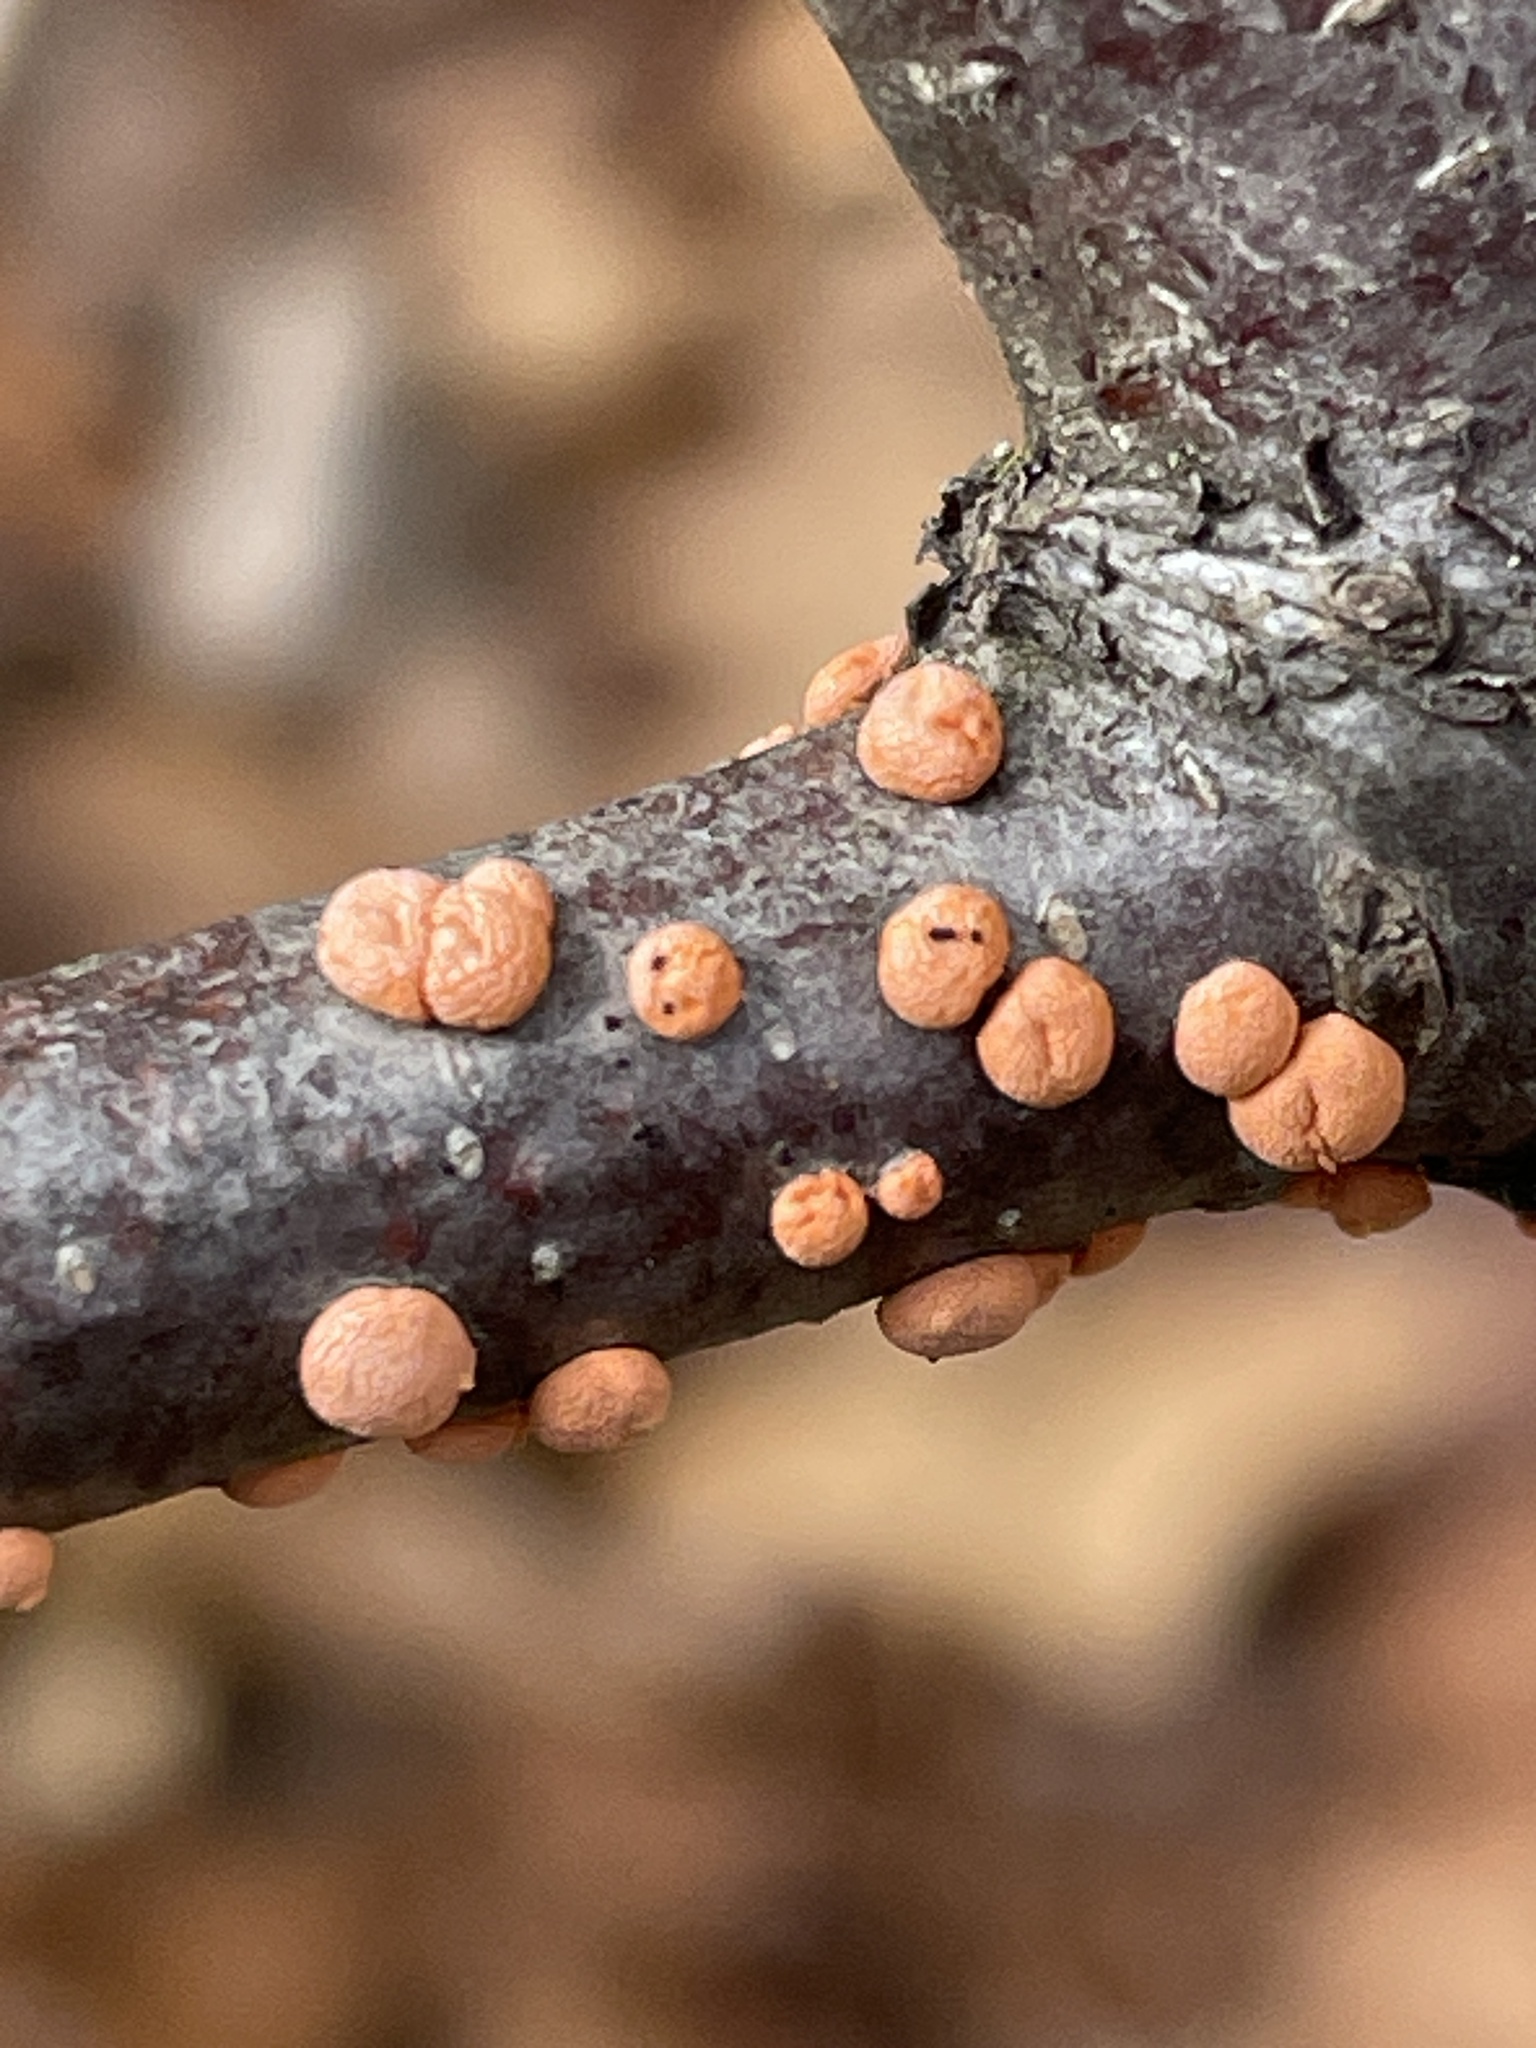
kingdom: Fungi
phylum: Ascomycota
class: Sordariomycetes
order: Hypocreales
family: Nectriaceae
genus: Nectria
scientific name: Nectria cinnabarina
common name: Coral spot
